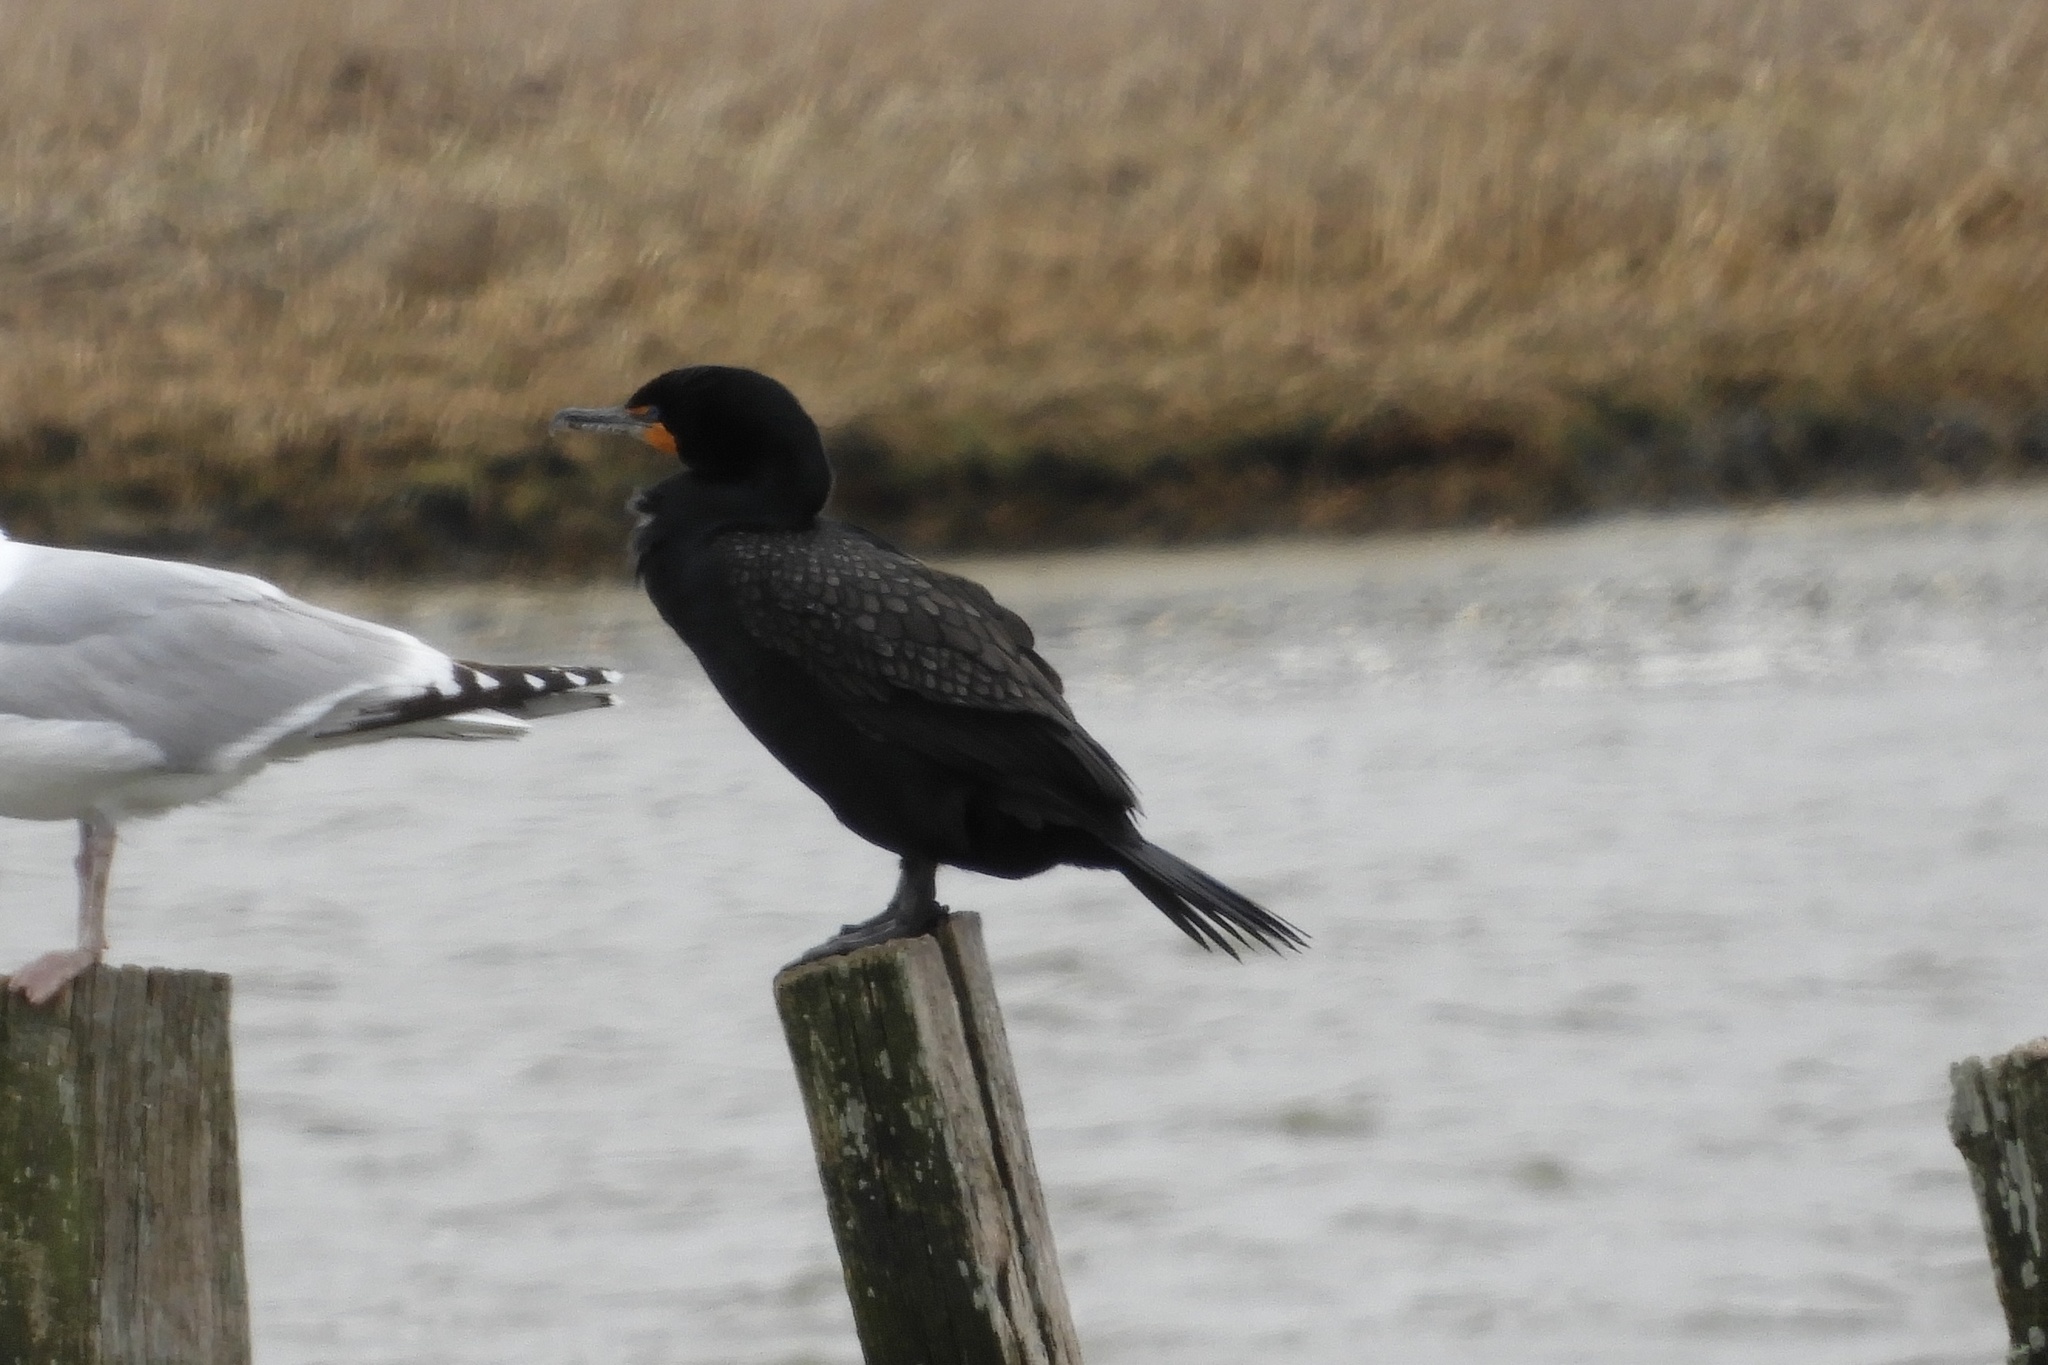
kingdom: Animalia
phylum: Chordata
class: Aves
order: Suliformes
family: Phalacrocoracidae
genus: Phalacrocorax
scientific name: Phalacrocorax auritus
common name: Double-crested cormorant
